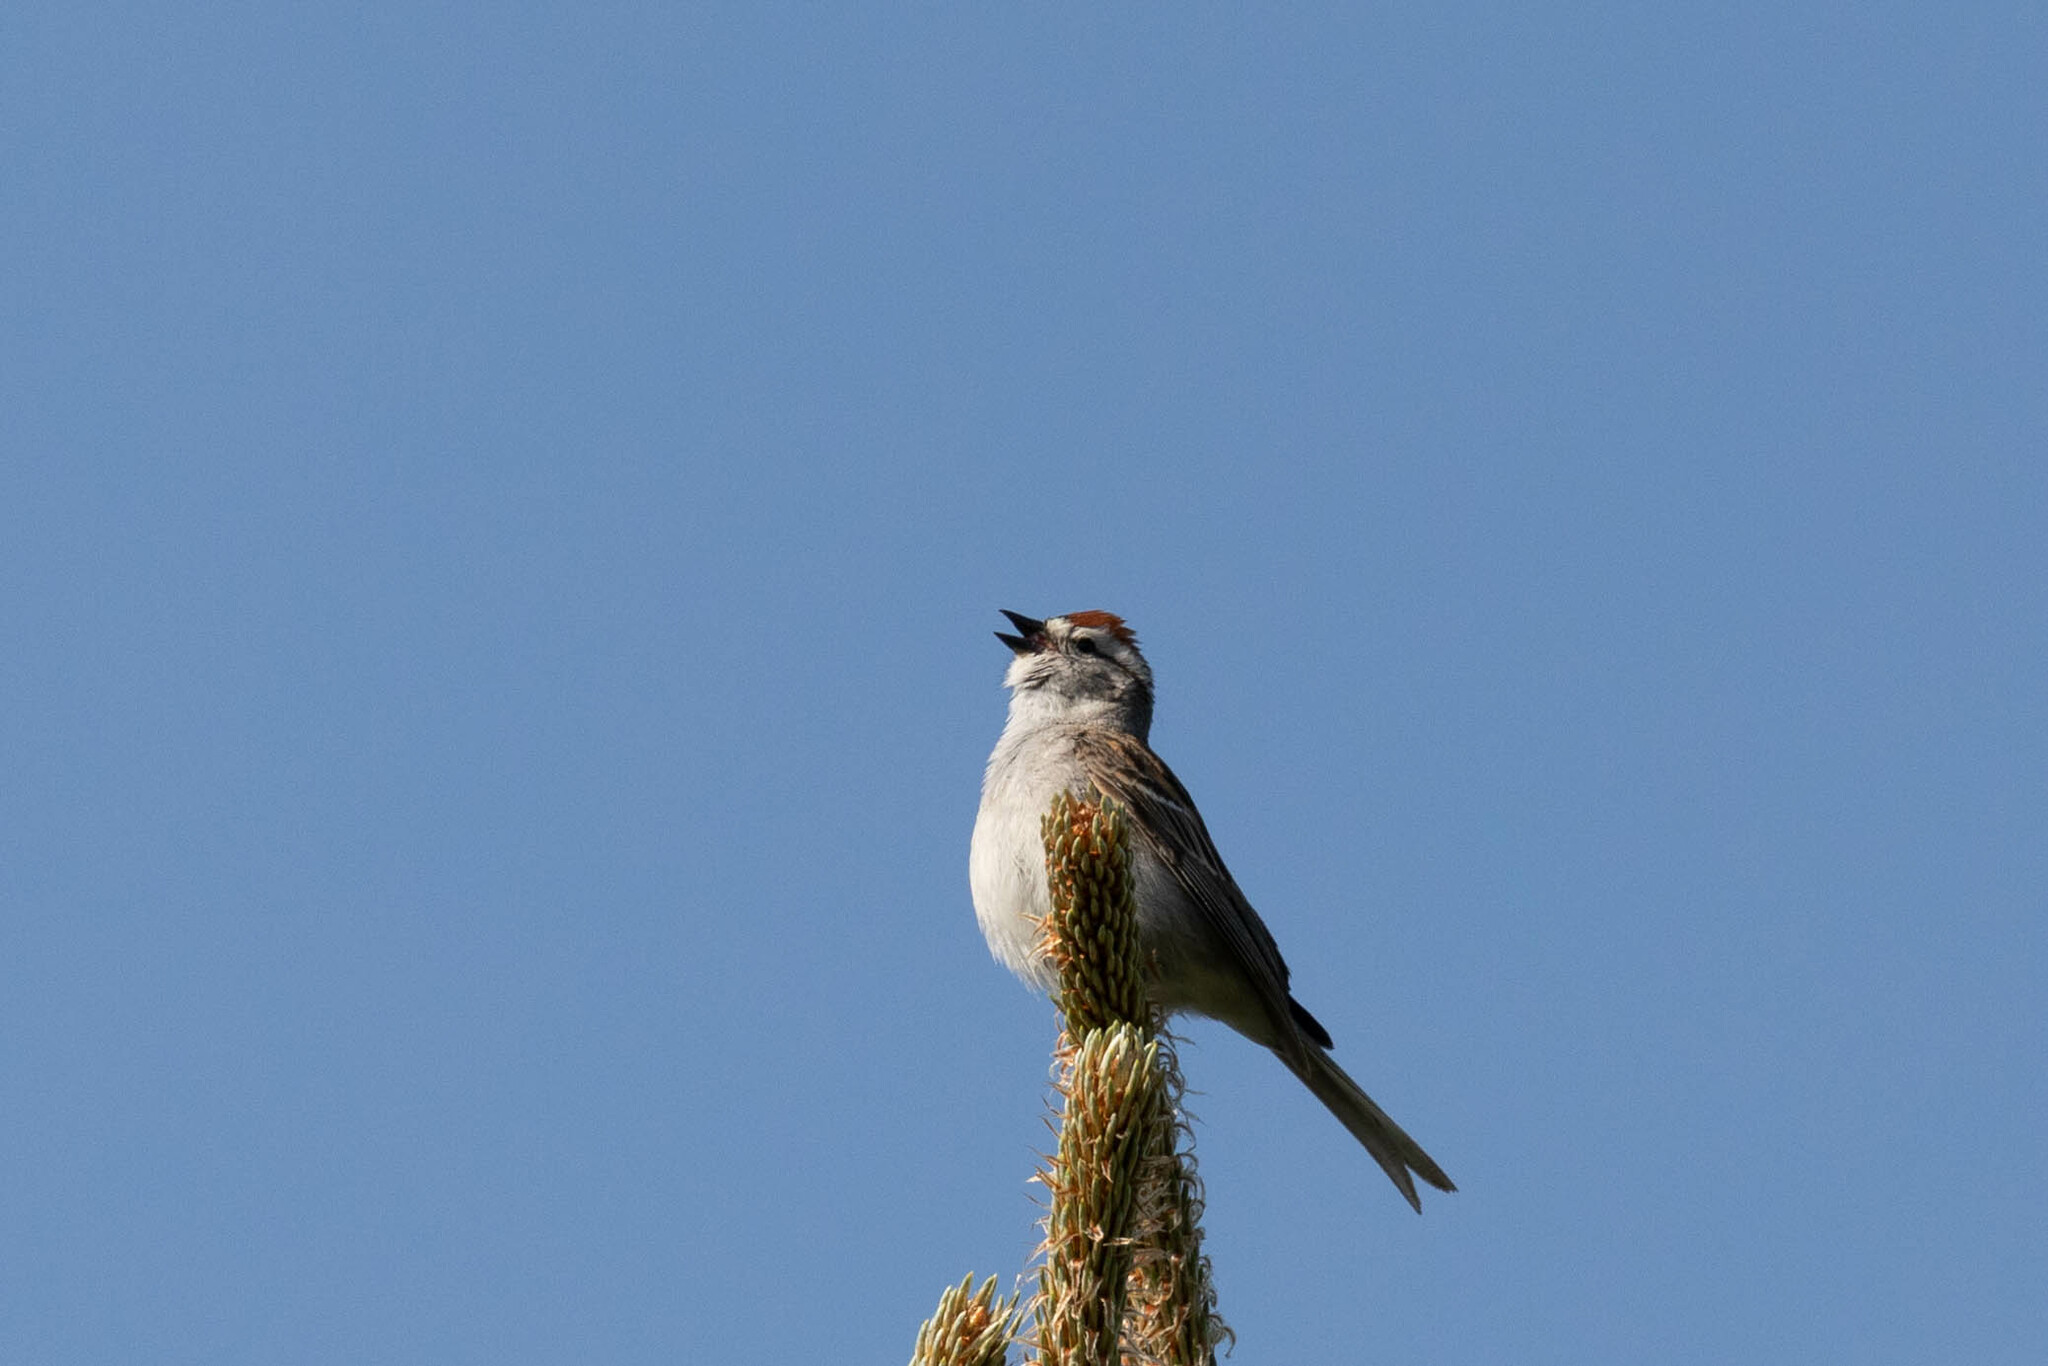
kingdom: Animalia
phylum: Chordata
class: Aves
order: Passeriformes
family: Passerellidae
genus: Spizella
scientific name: Spizella passerina
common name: Chipping sparrow
